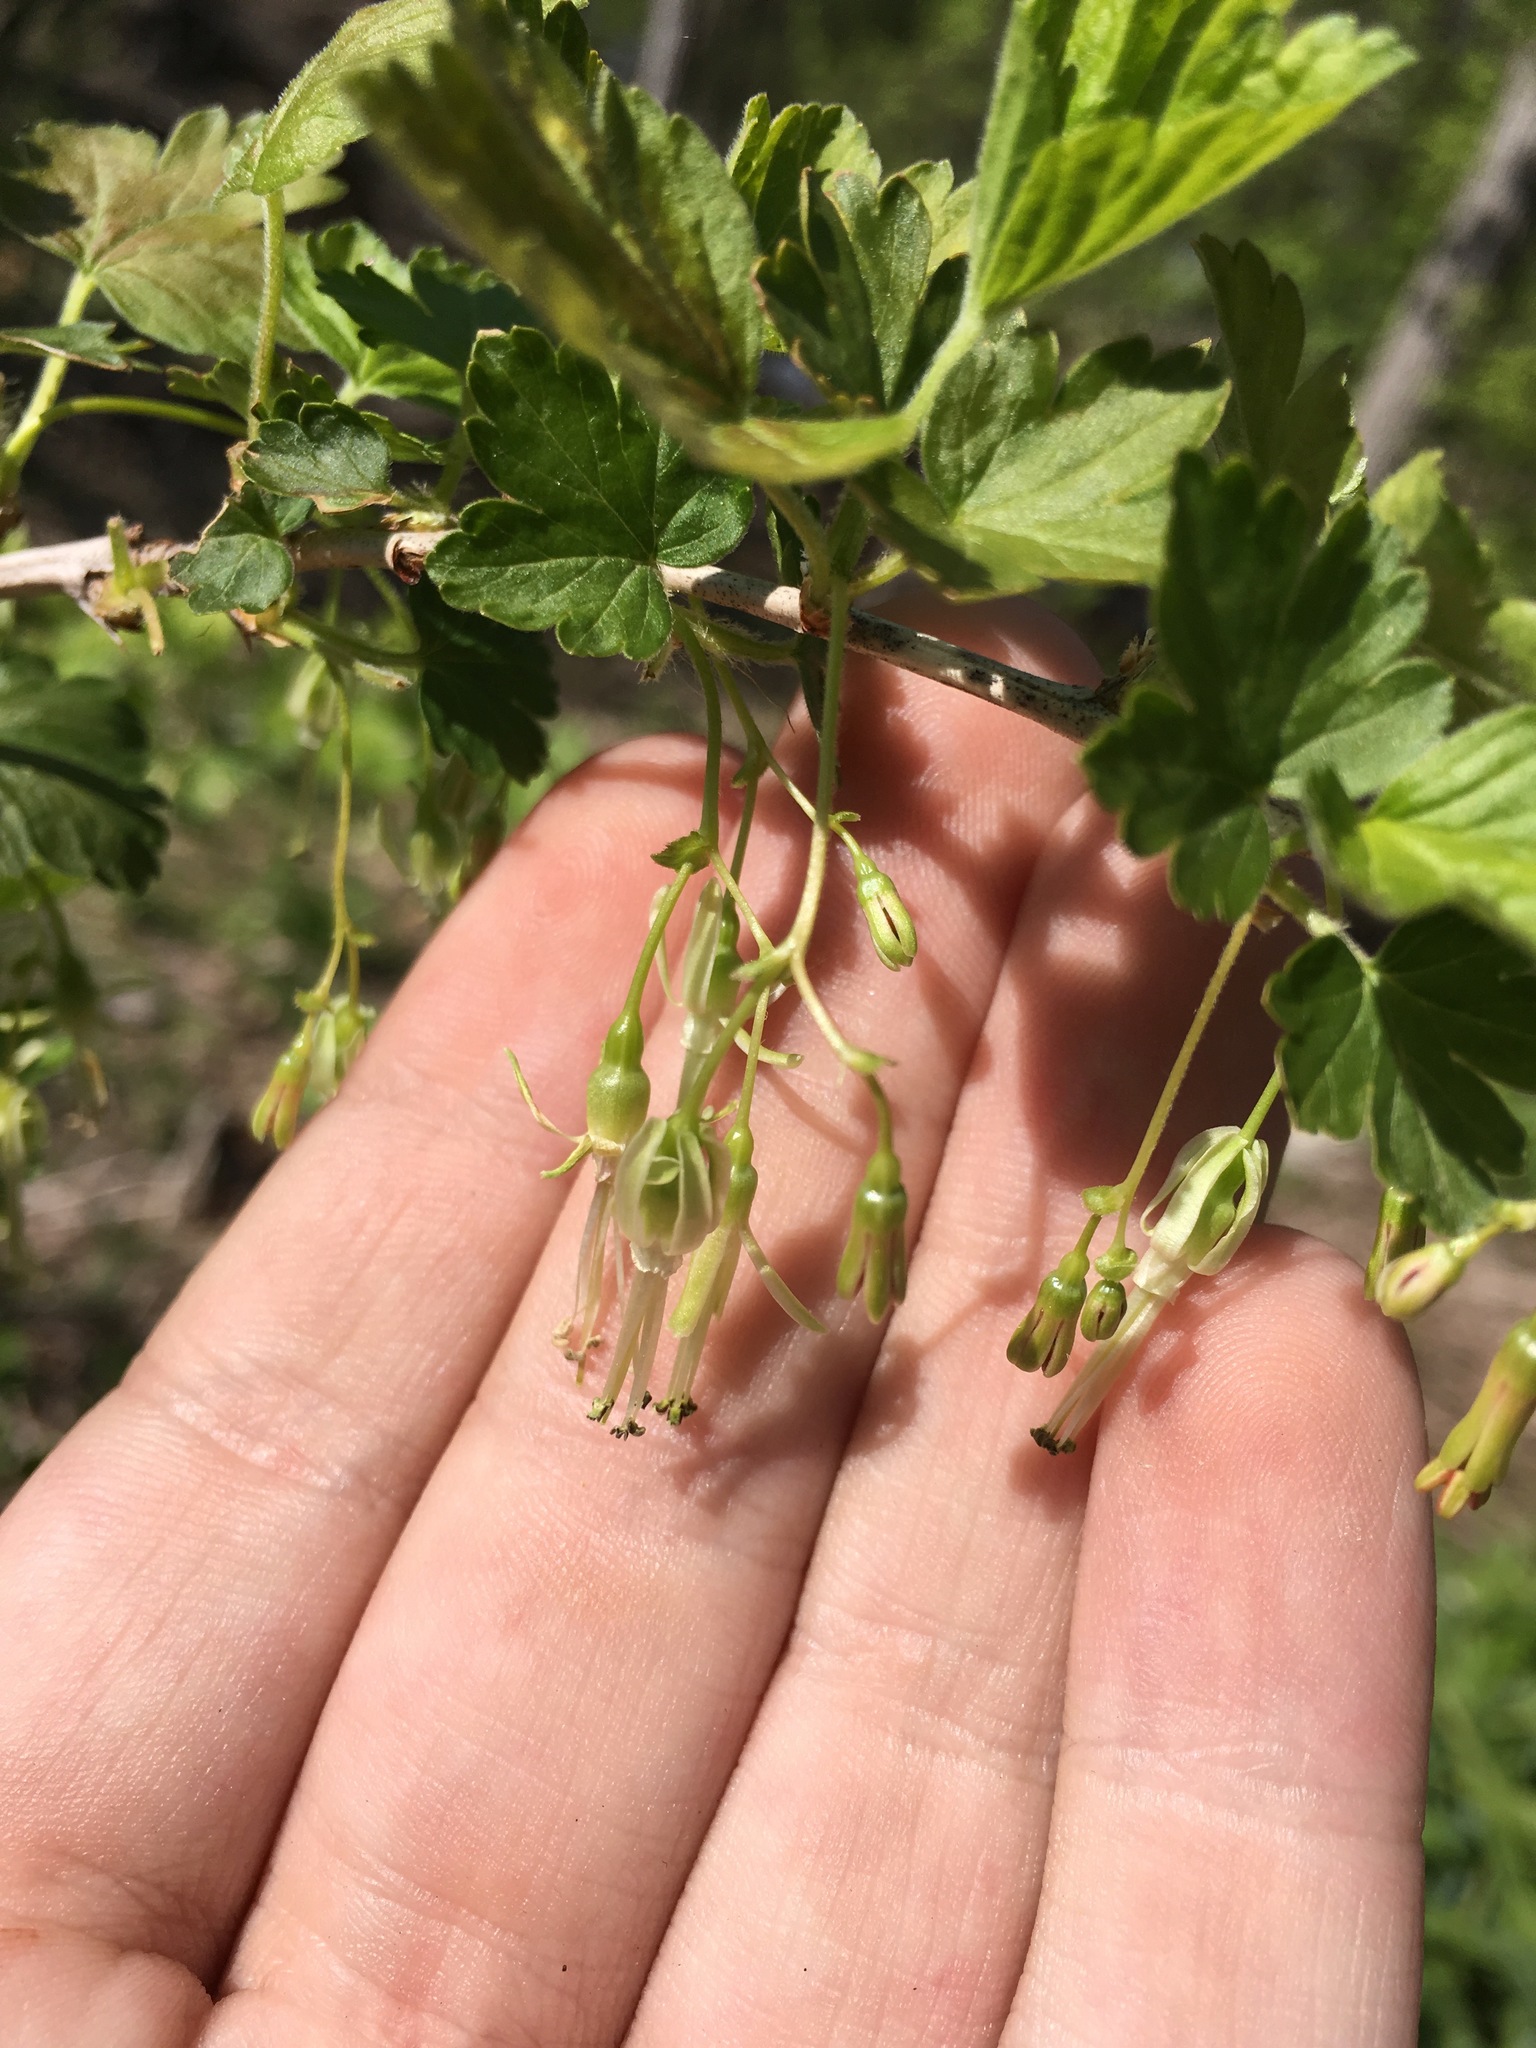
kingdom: Plantae
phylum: Tracheophyta
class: Magnoliopsida
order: Saxifragales
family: Grossulariaceae
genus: Ribes
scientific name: Ribes missouriense
